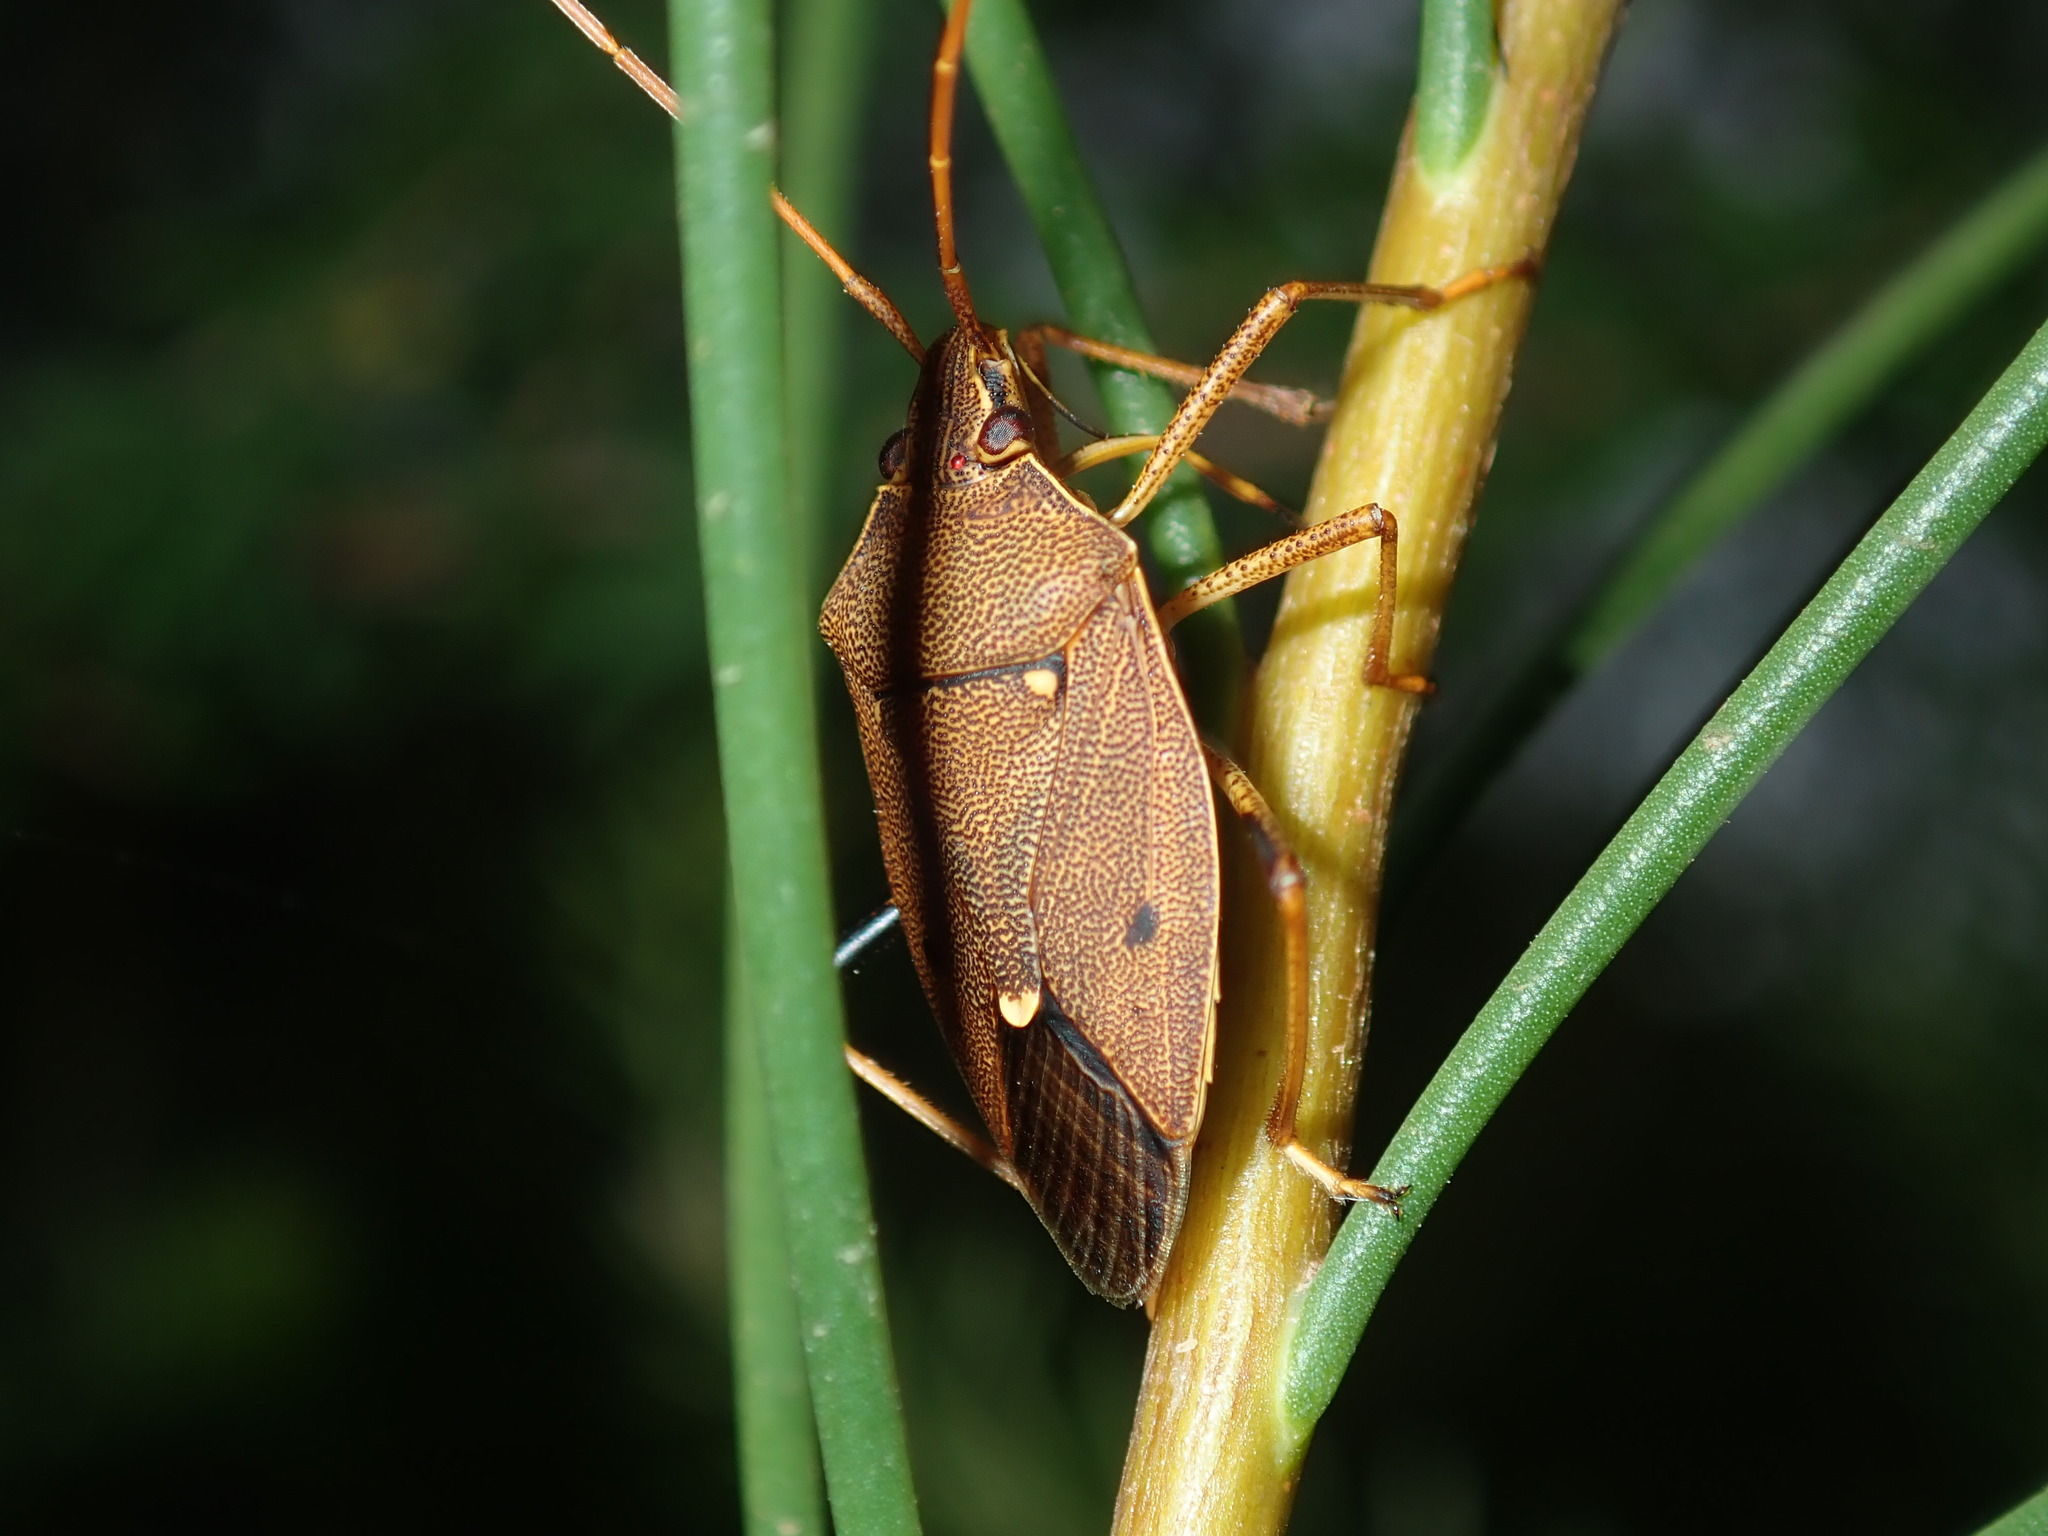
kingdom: Animalia
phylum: Arthropoda
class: Insecta
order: Hemiptera
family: Pentatomidae
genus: Poecilometis
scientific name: Poecilometis
